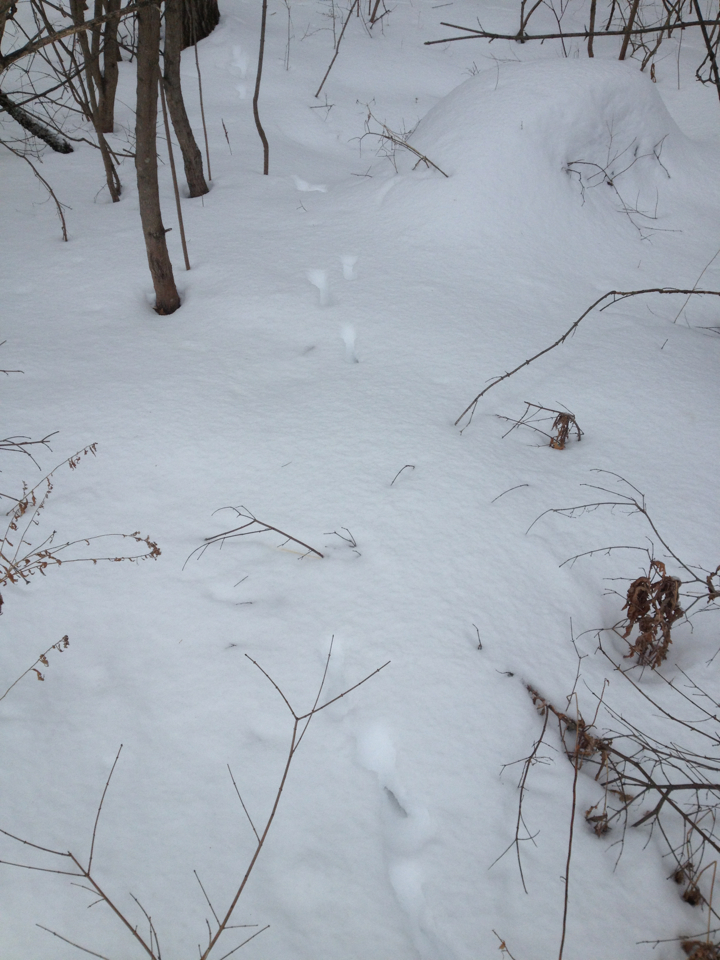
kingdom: Animalia
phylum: Chordata
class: Mammalia
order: Artiodactyla
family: Cervidae
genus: Odocoileus
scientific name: Odocoileus virginianus
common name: White-tailed deer
